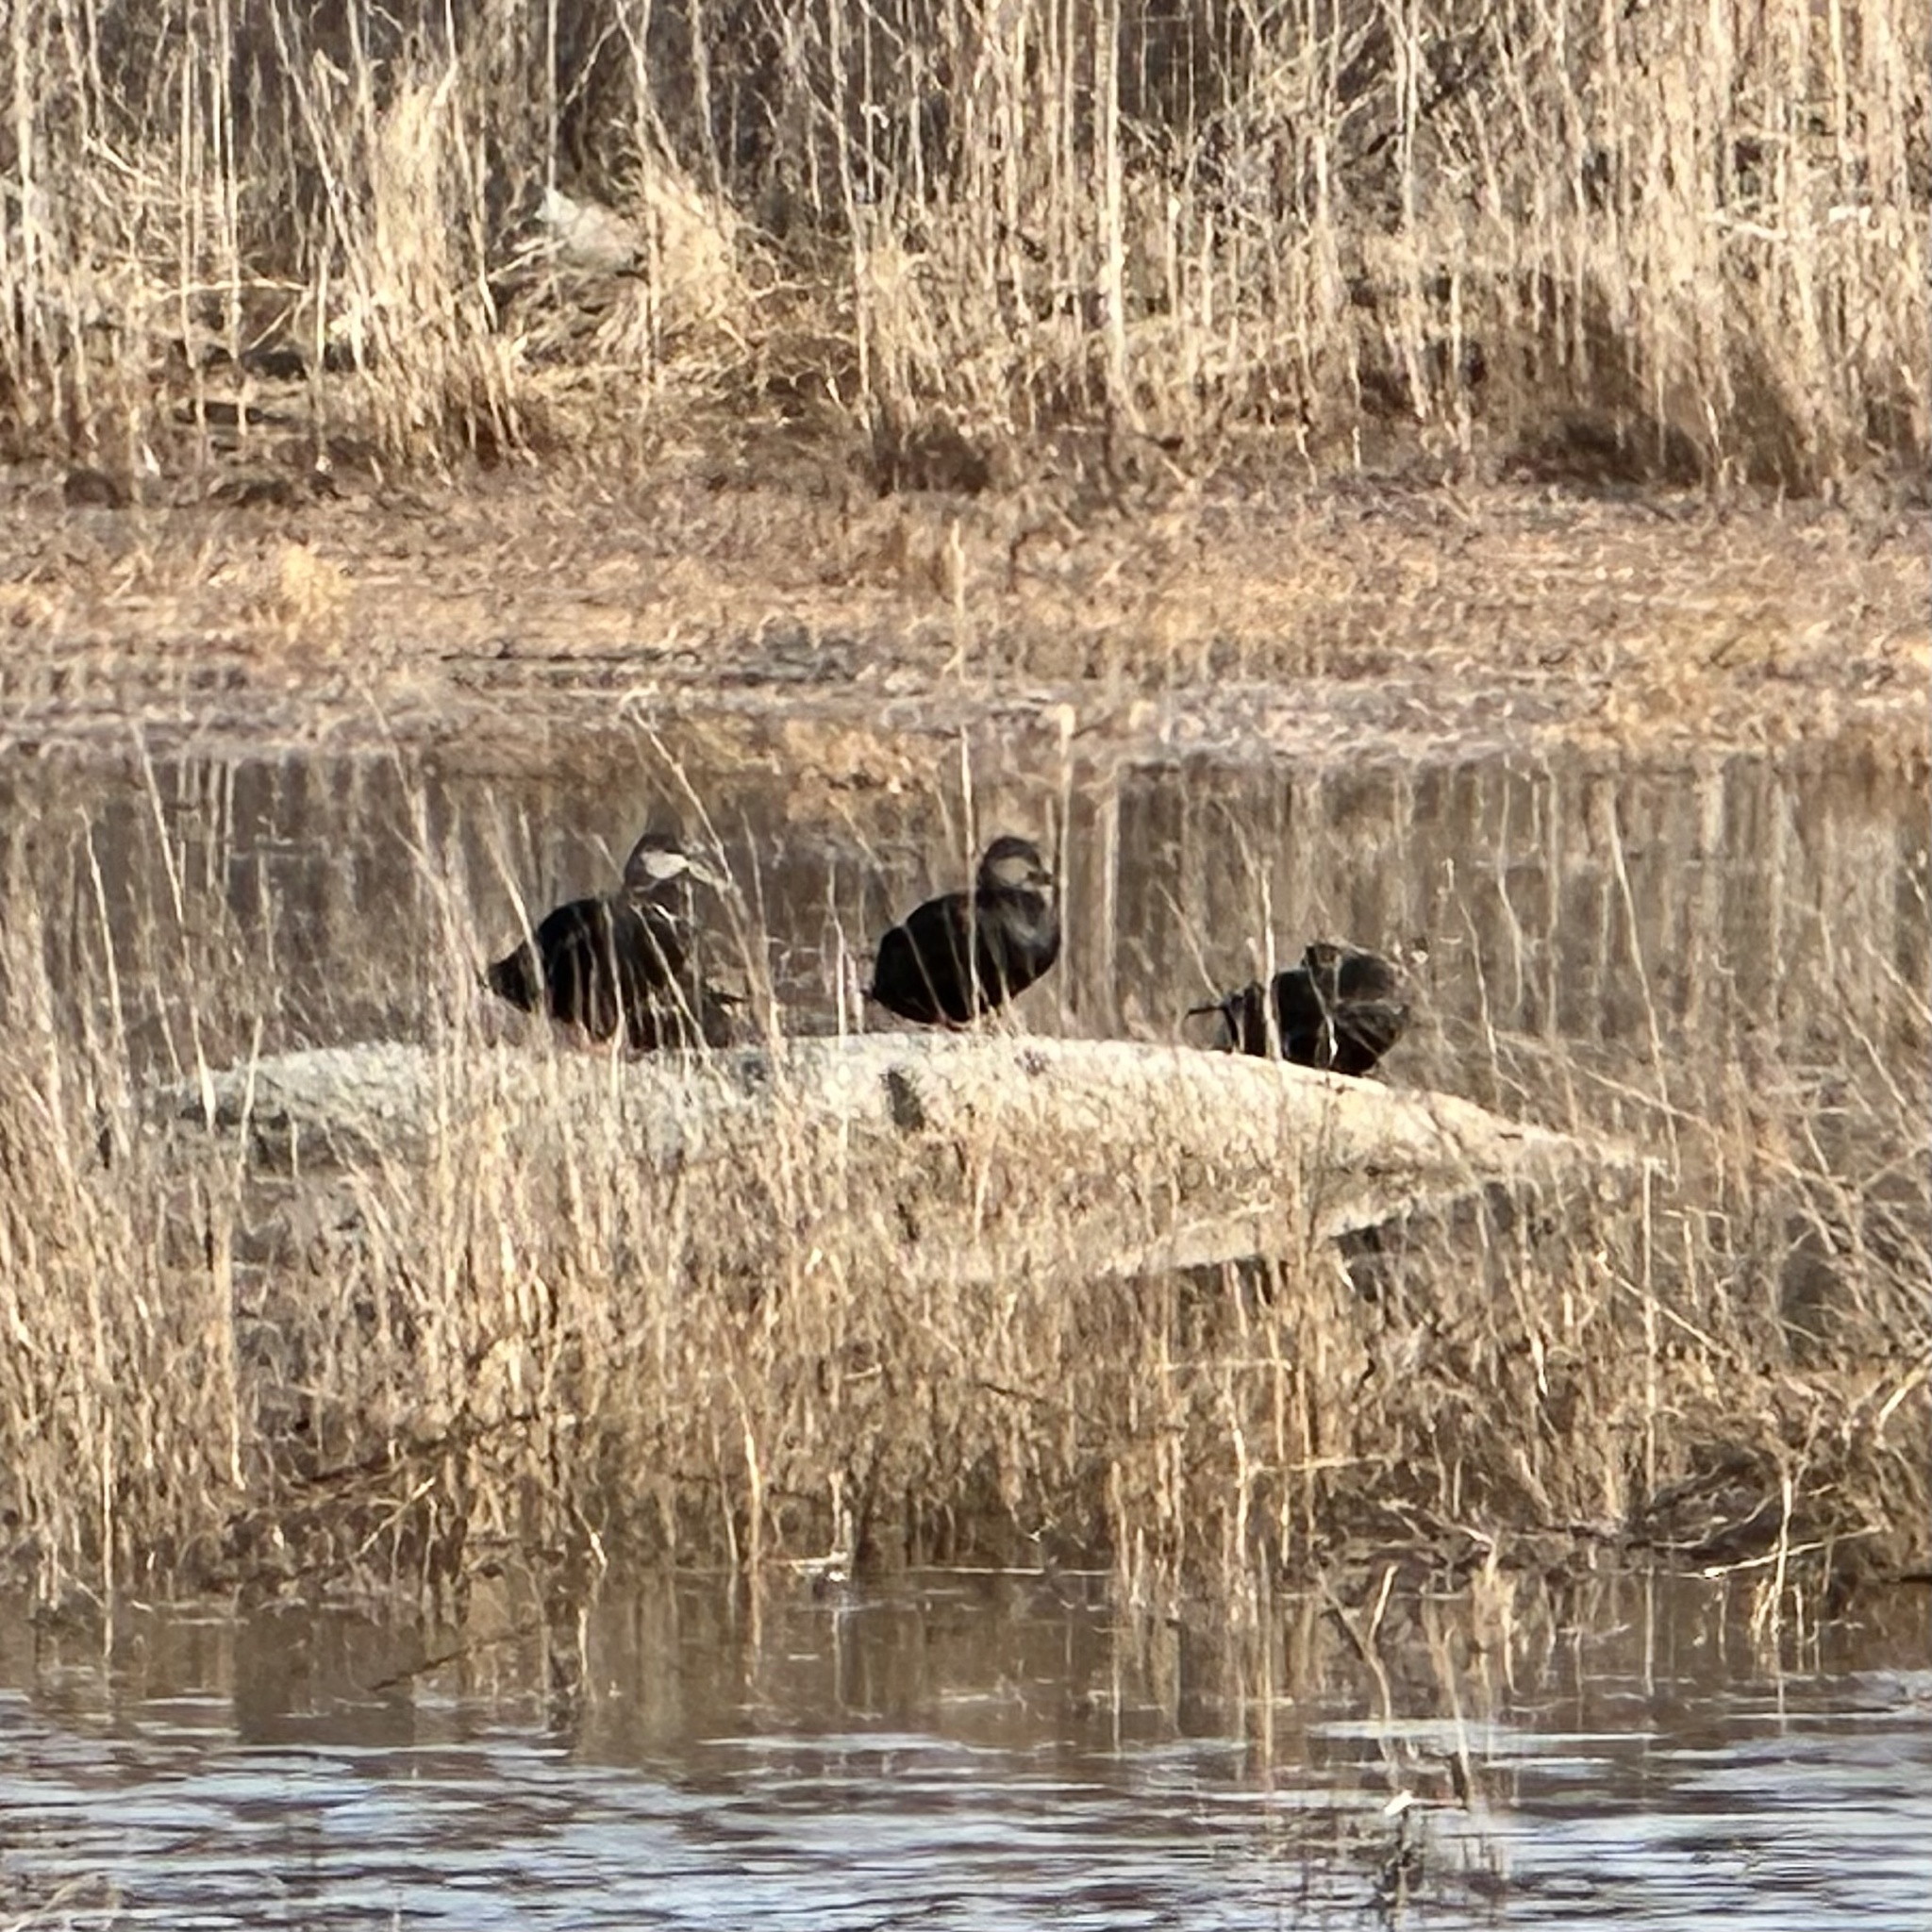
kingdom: Animalia
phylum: Chordata
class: Aves
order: Anseriformes
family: Anatidae
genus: Anas
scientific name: Anas rubripes
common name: American black duck
